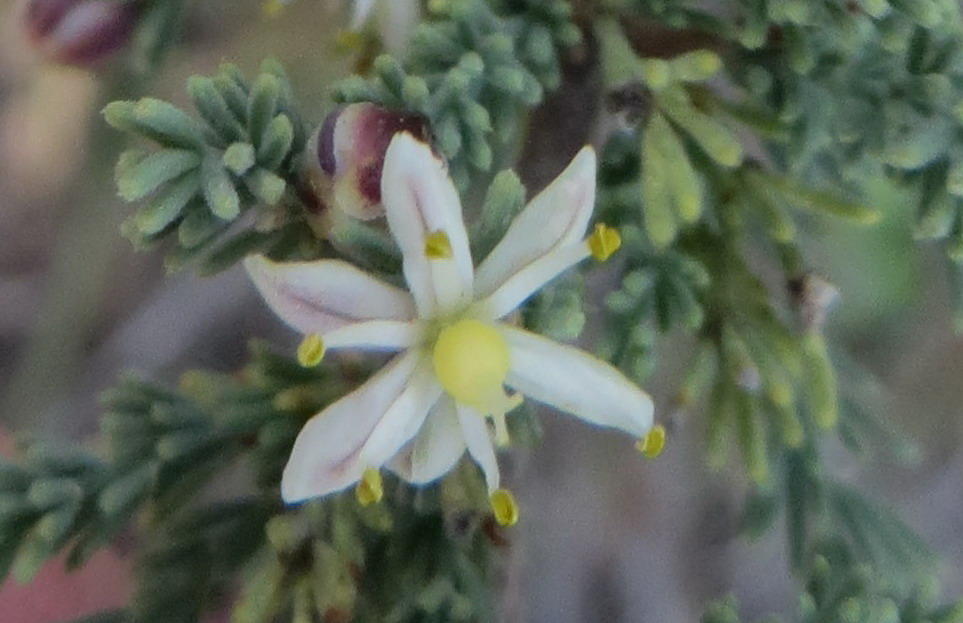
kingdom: Plantae
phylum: Tracheophyta
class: Liliopsida
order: Asparagales
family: Asparagaceae
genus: Asparagus
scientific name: Asparagus capensis
